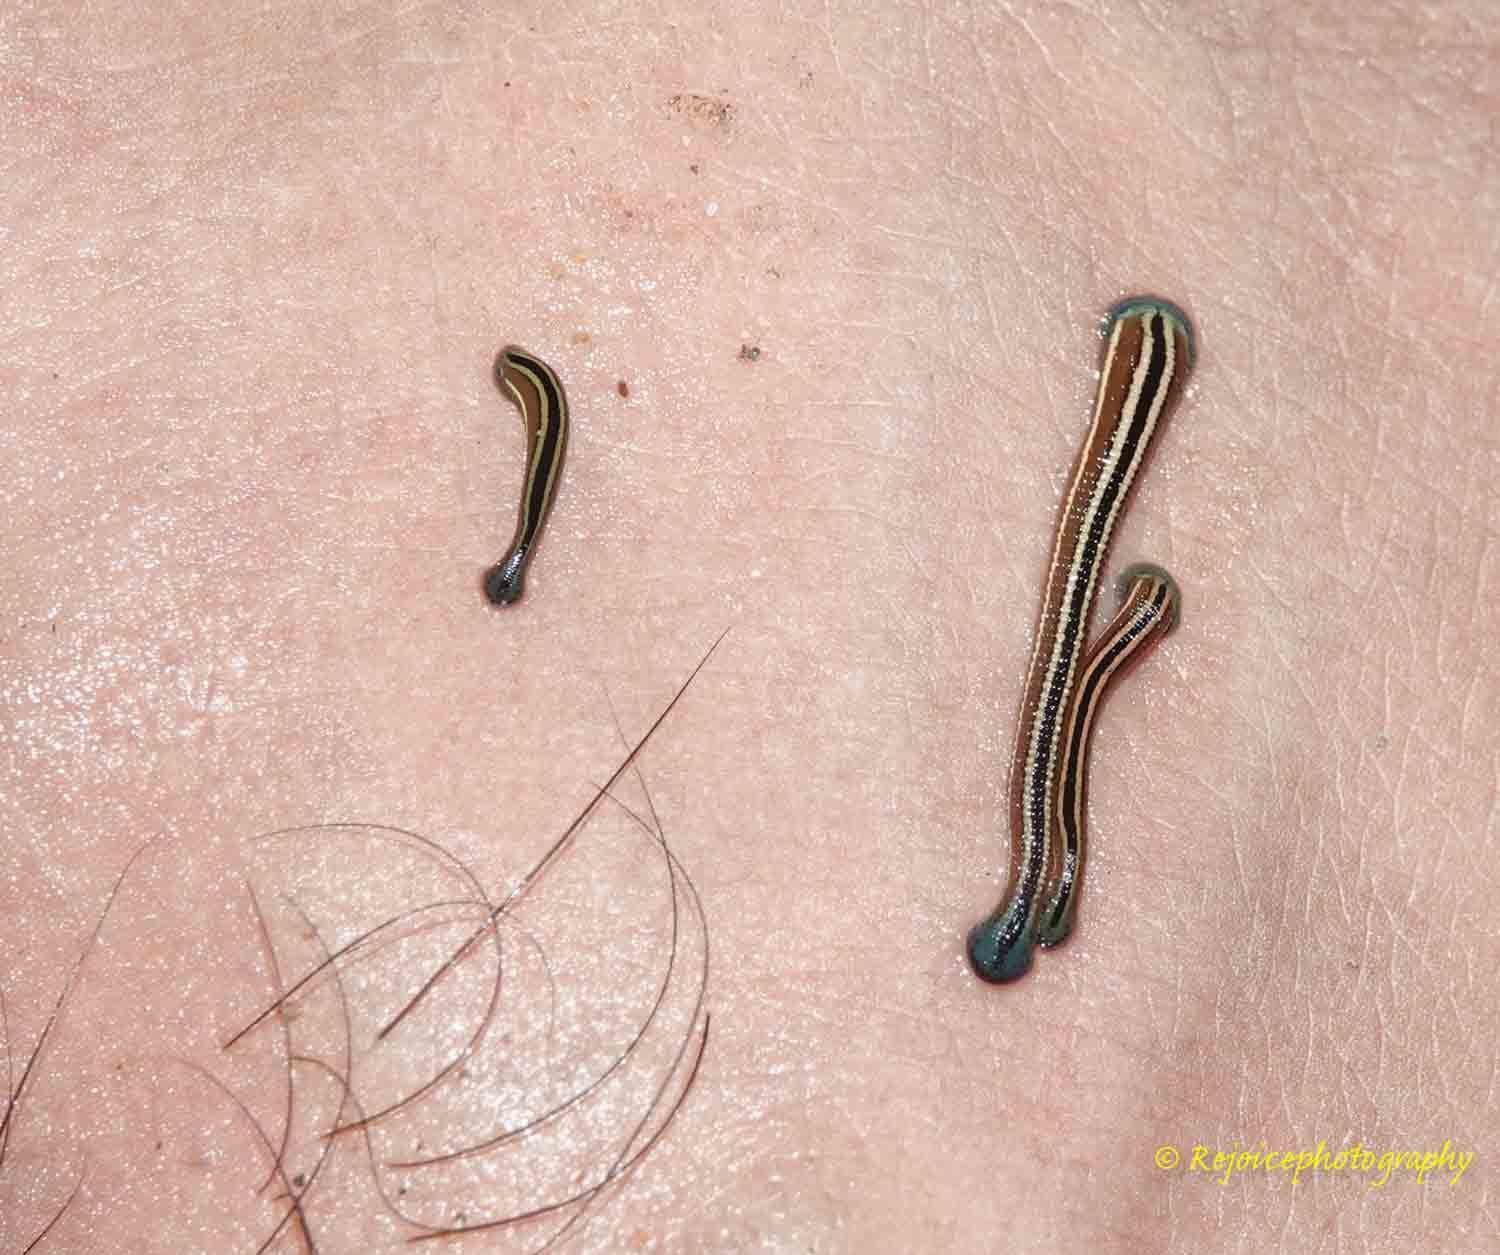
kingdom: Animalia
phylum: Annelida
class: Clitellata
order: Arhynchobdellida
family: Haemadipsidae
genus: Haemadipsa
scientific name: Haemadipsa ornata
